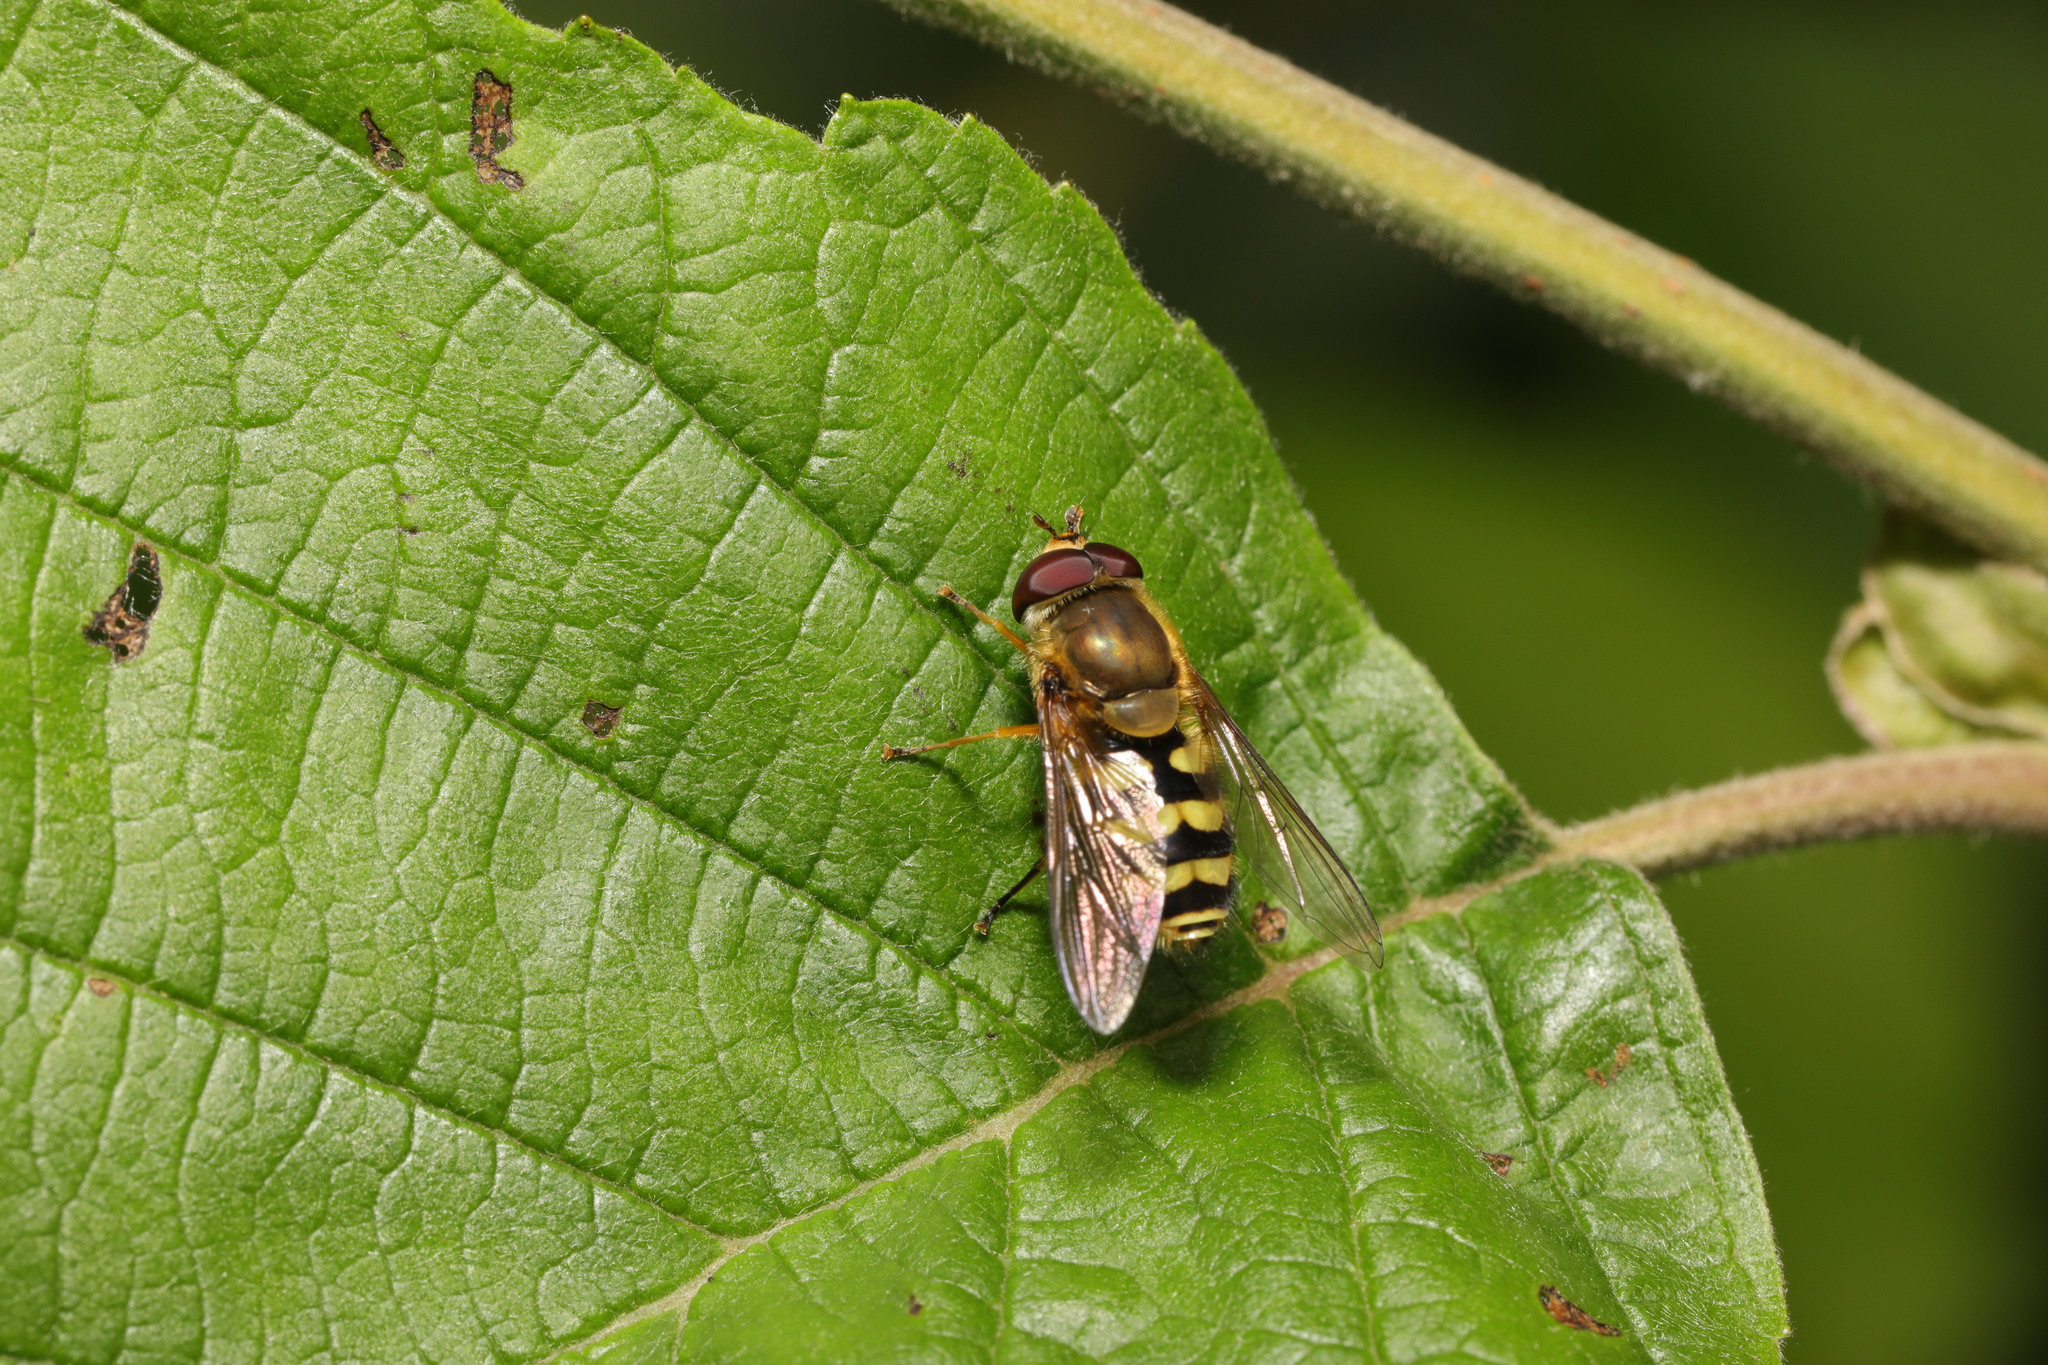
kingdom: Animalia
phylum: Arthropoda
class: Insecta
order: Diptera
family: Syrphidae
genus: Syrphus
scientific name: Syrphus
